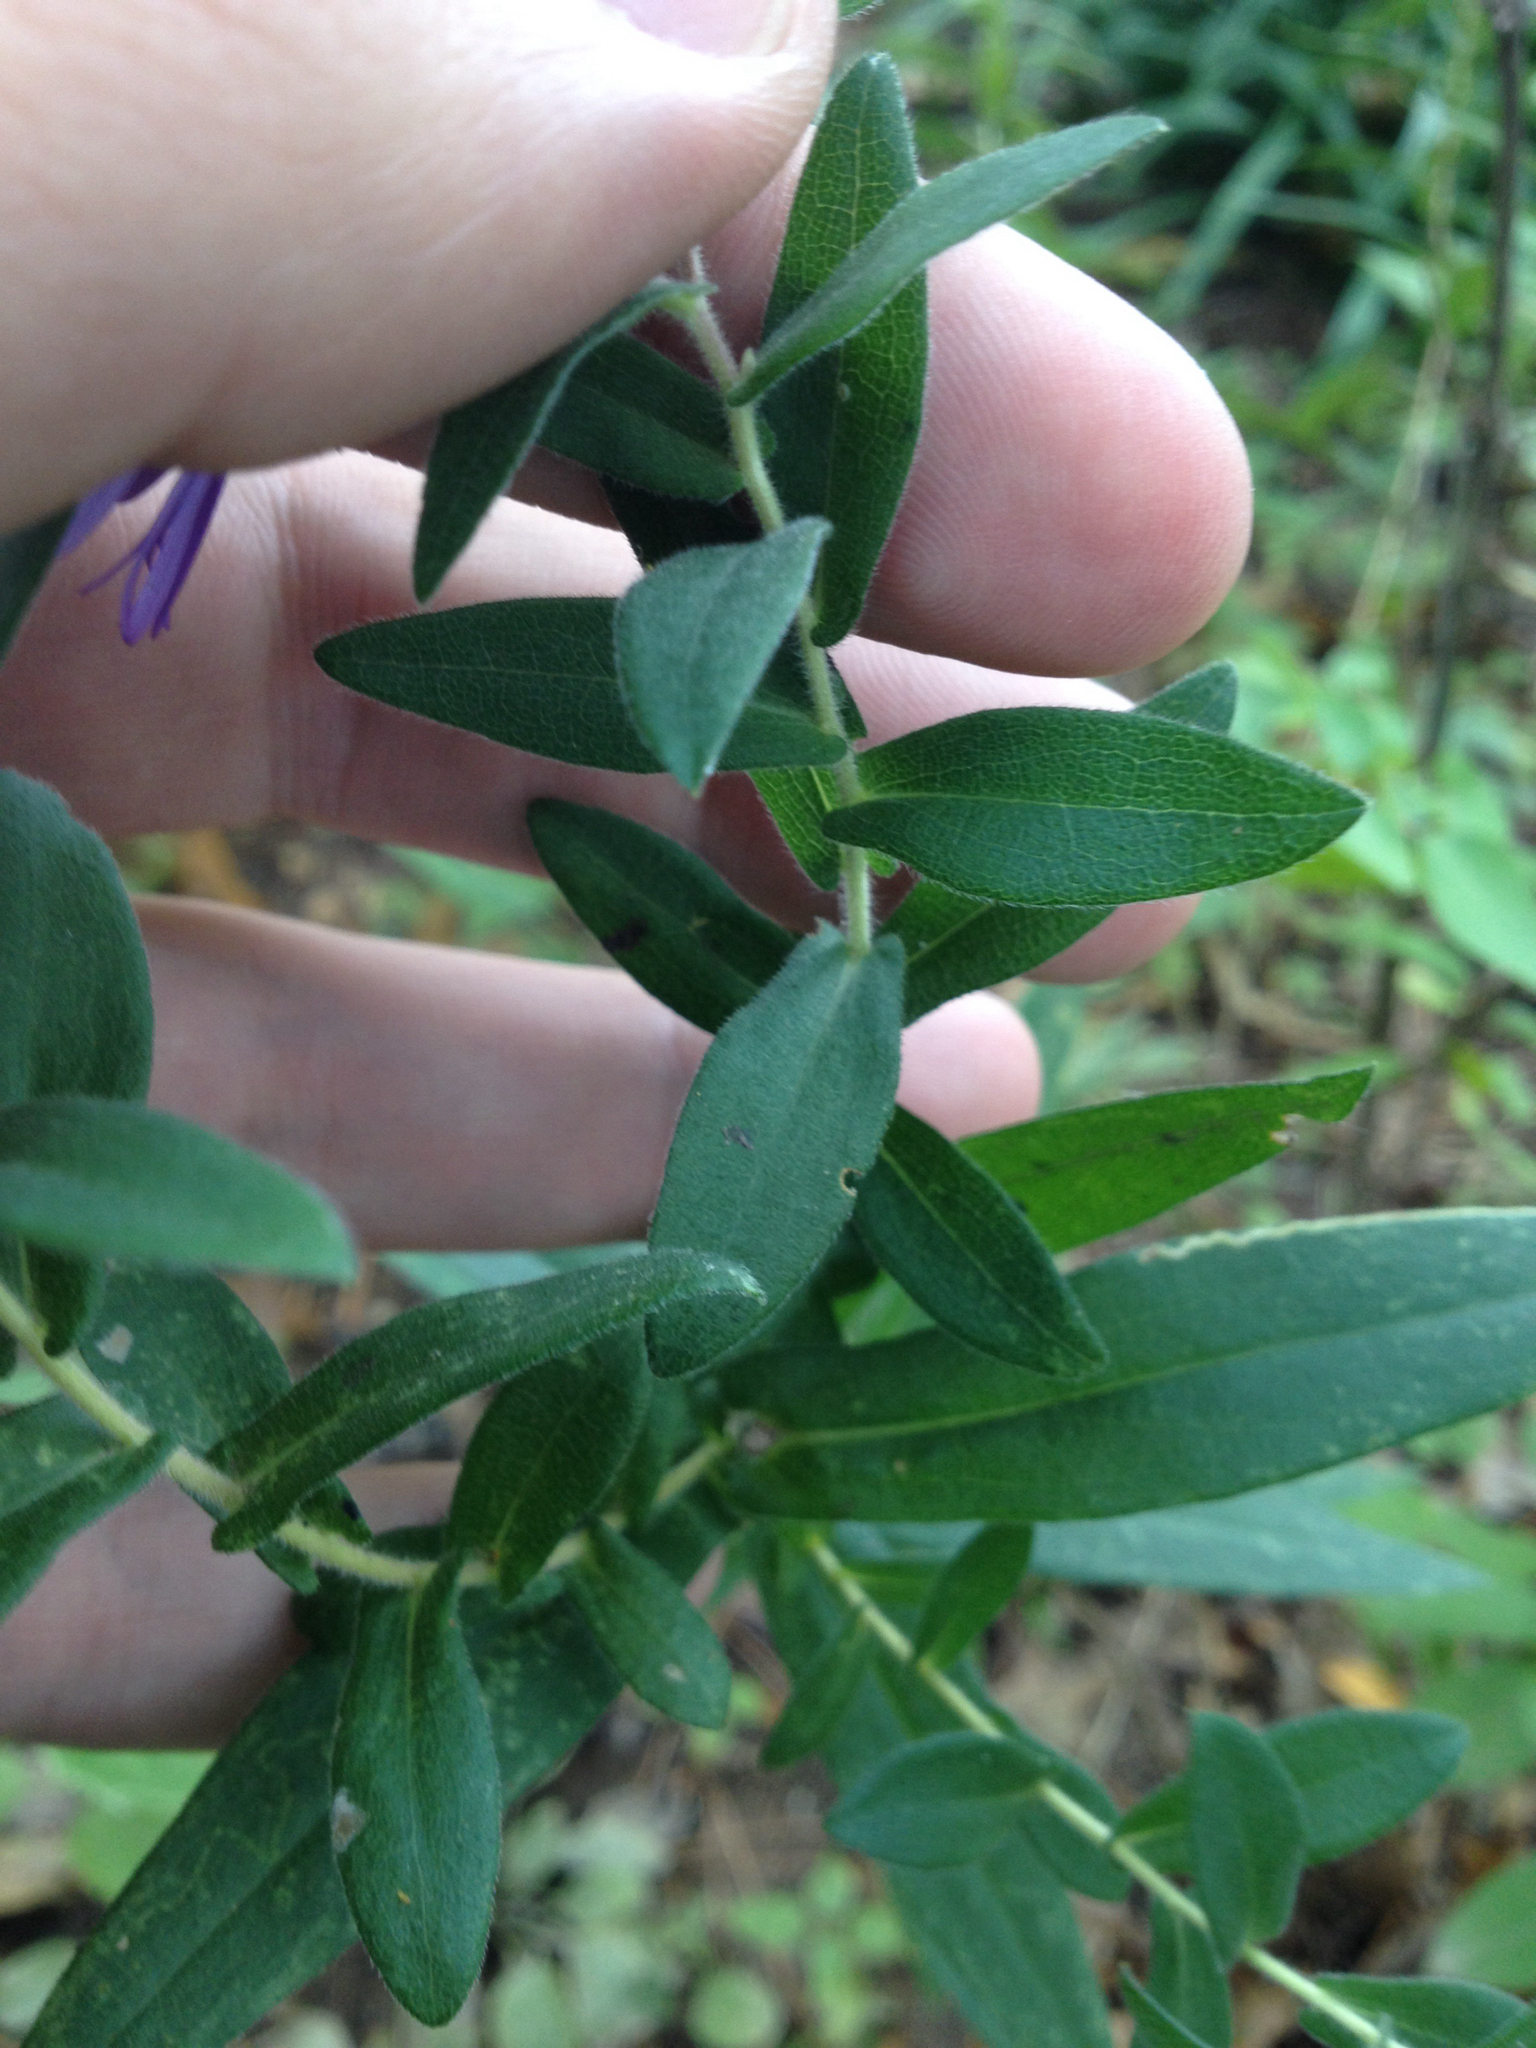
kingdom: Plantae
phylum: Tracheophyta
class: Magnoliopsida
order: Asterales
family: Asteraceae
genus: Symphyotrichum
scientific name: Symphyotrichum novae-angliae
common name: Michaelmas daisy
